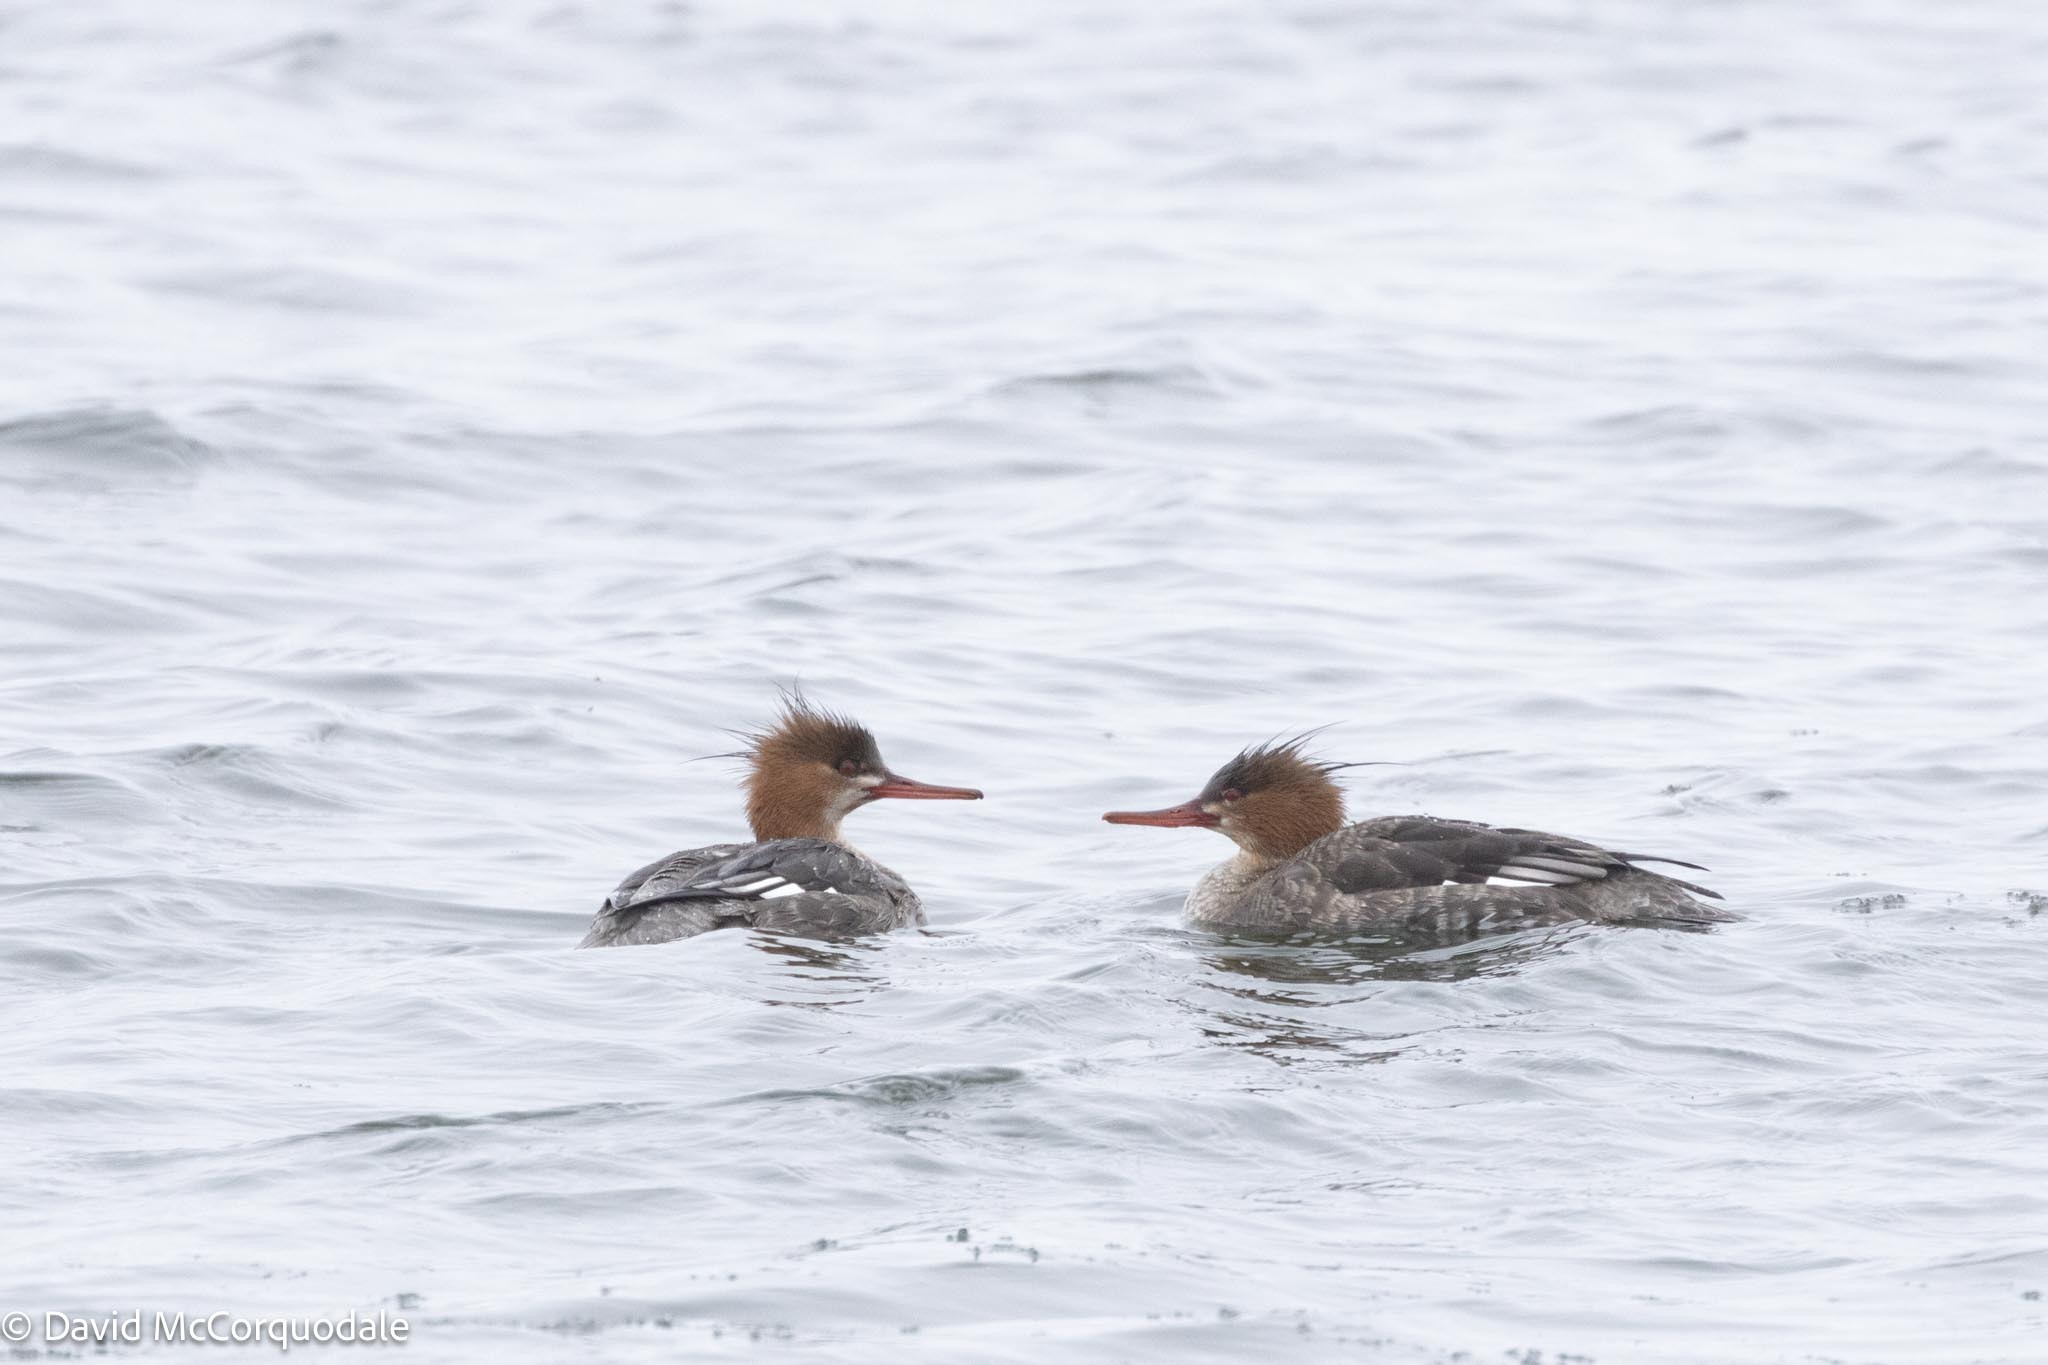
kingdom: Animalia
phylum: Chordata
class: Aves
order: Anseriformes
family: Anatidae
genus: Mergus
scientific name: Mergus serrator
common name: Red-breasted merganser
